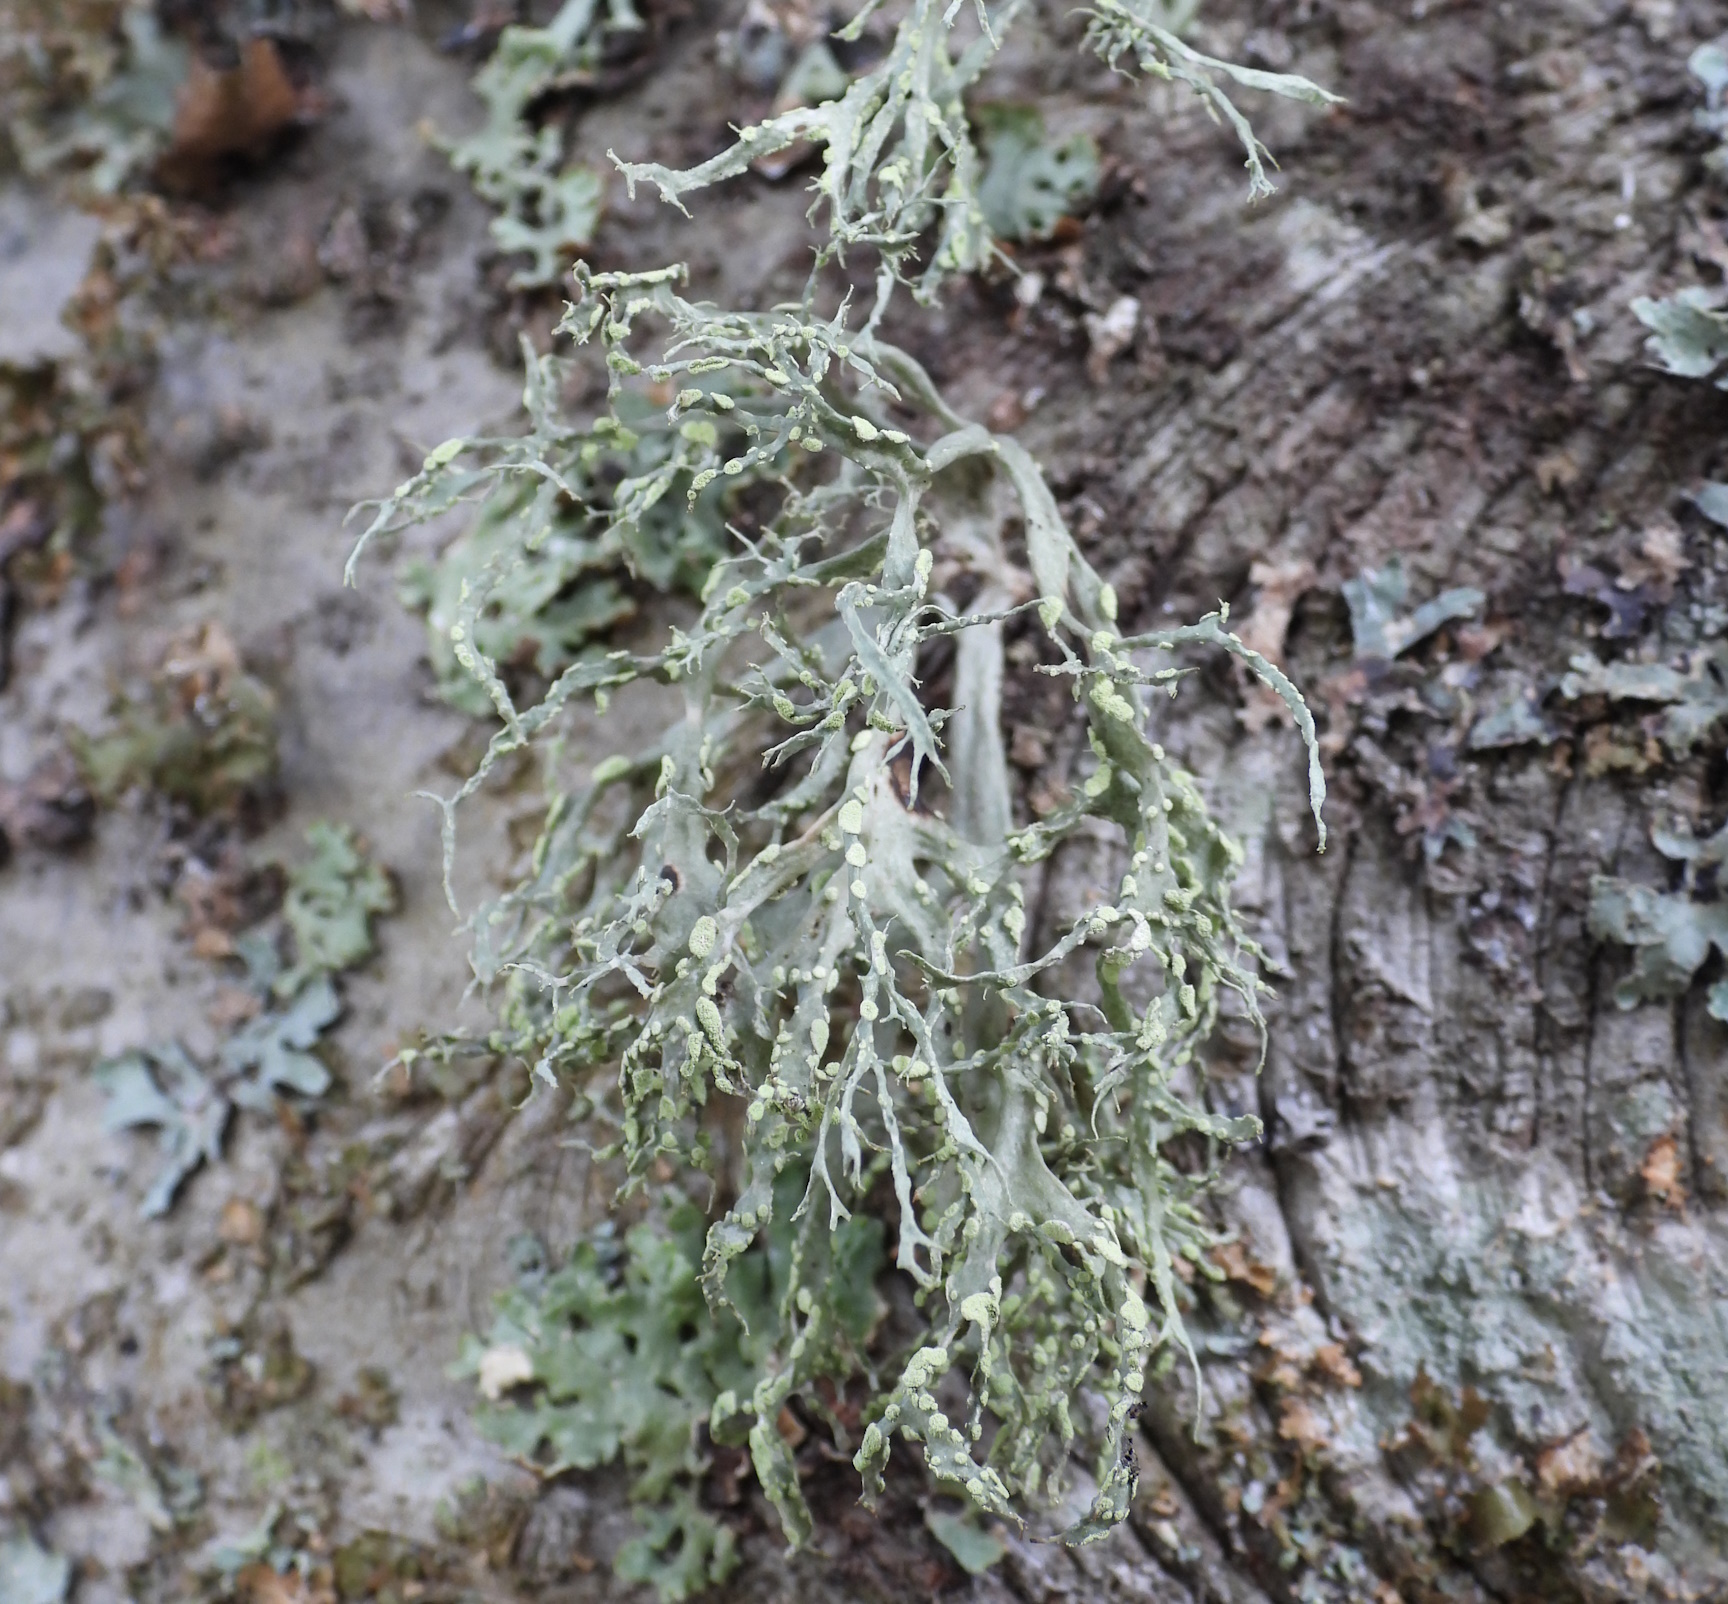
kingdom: Fungi
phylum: Ascomycota
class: Lecanoromycetes
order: Lecanorales
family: Ramalinaceae
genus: Ramalina
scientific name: Ramalina farinacea
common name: Farinose cartilage lichen
